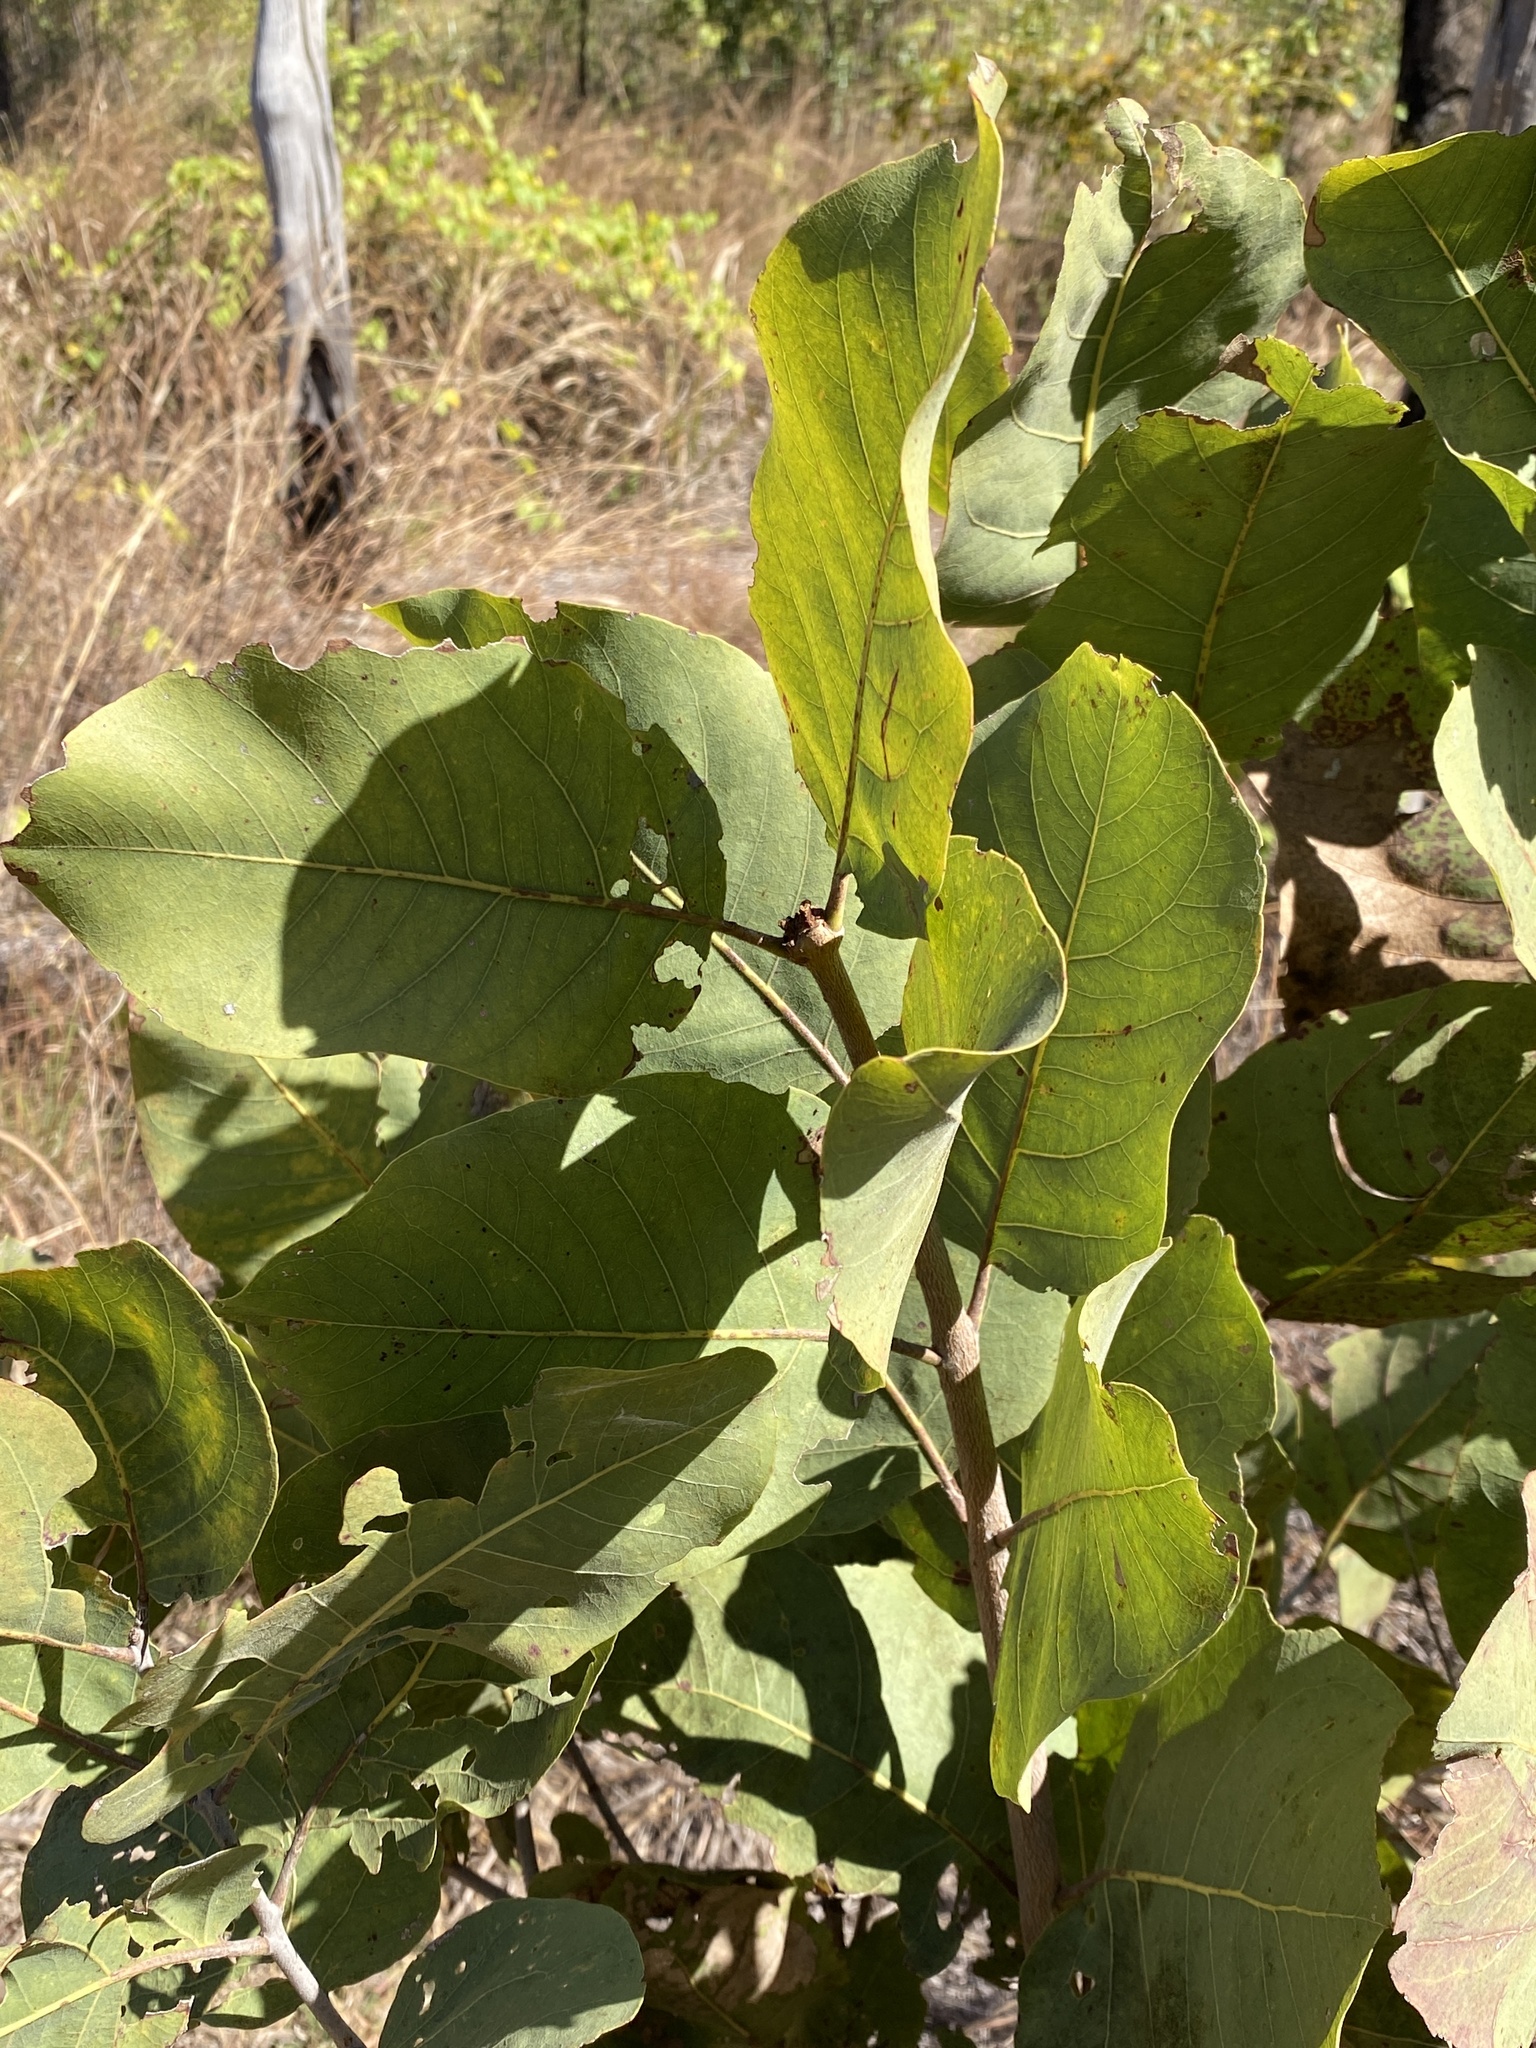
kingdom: Plantae
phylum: Tracheophyta
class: Magnoliopsida
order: Myrtales
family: Myrtaceae
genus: Corymbia
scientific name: Corymbia disjuncta
